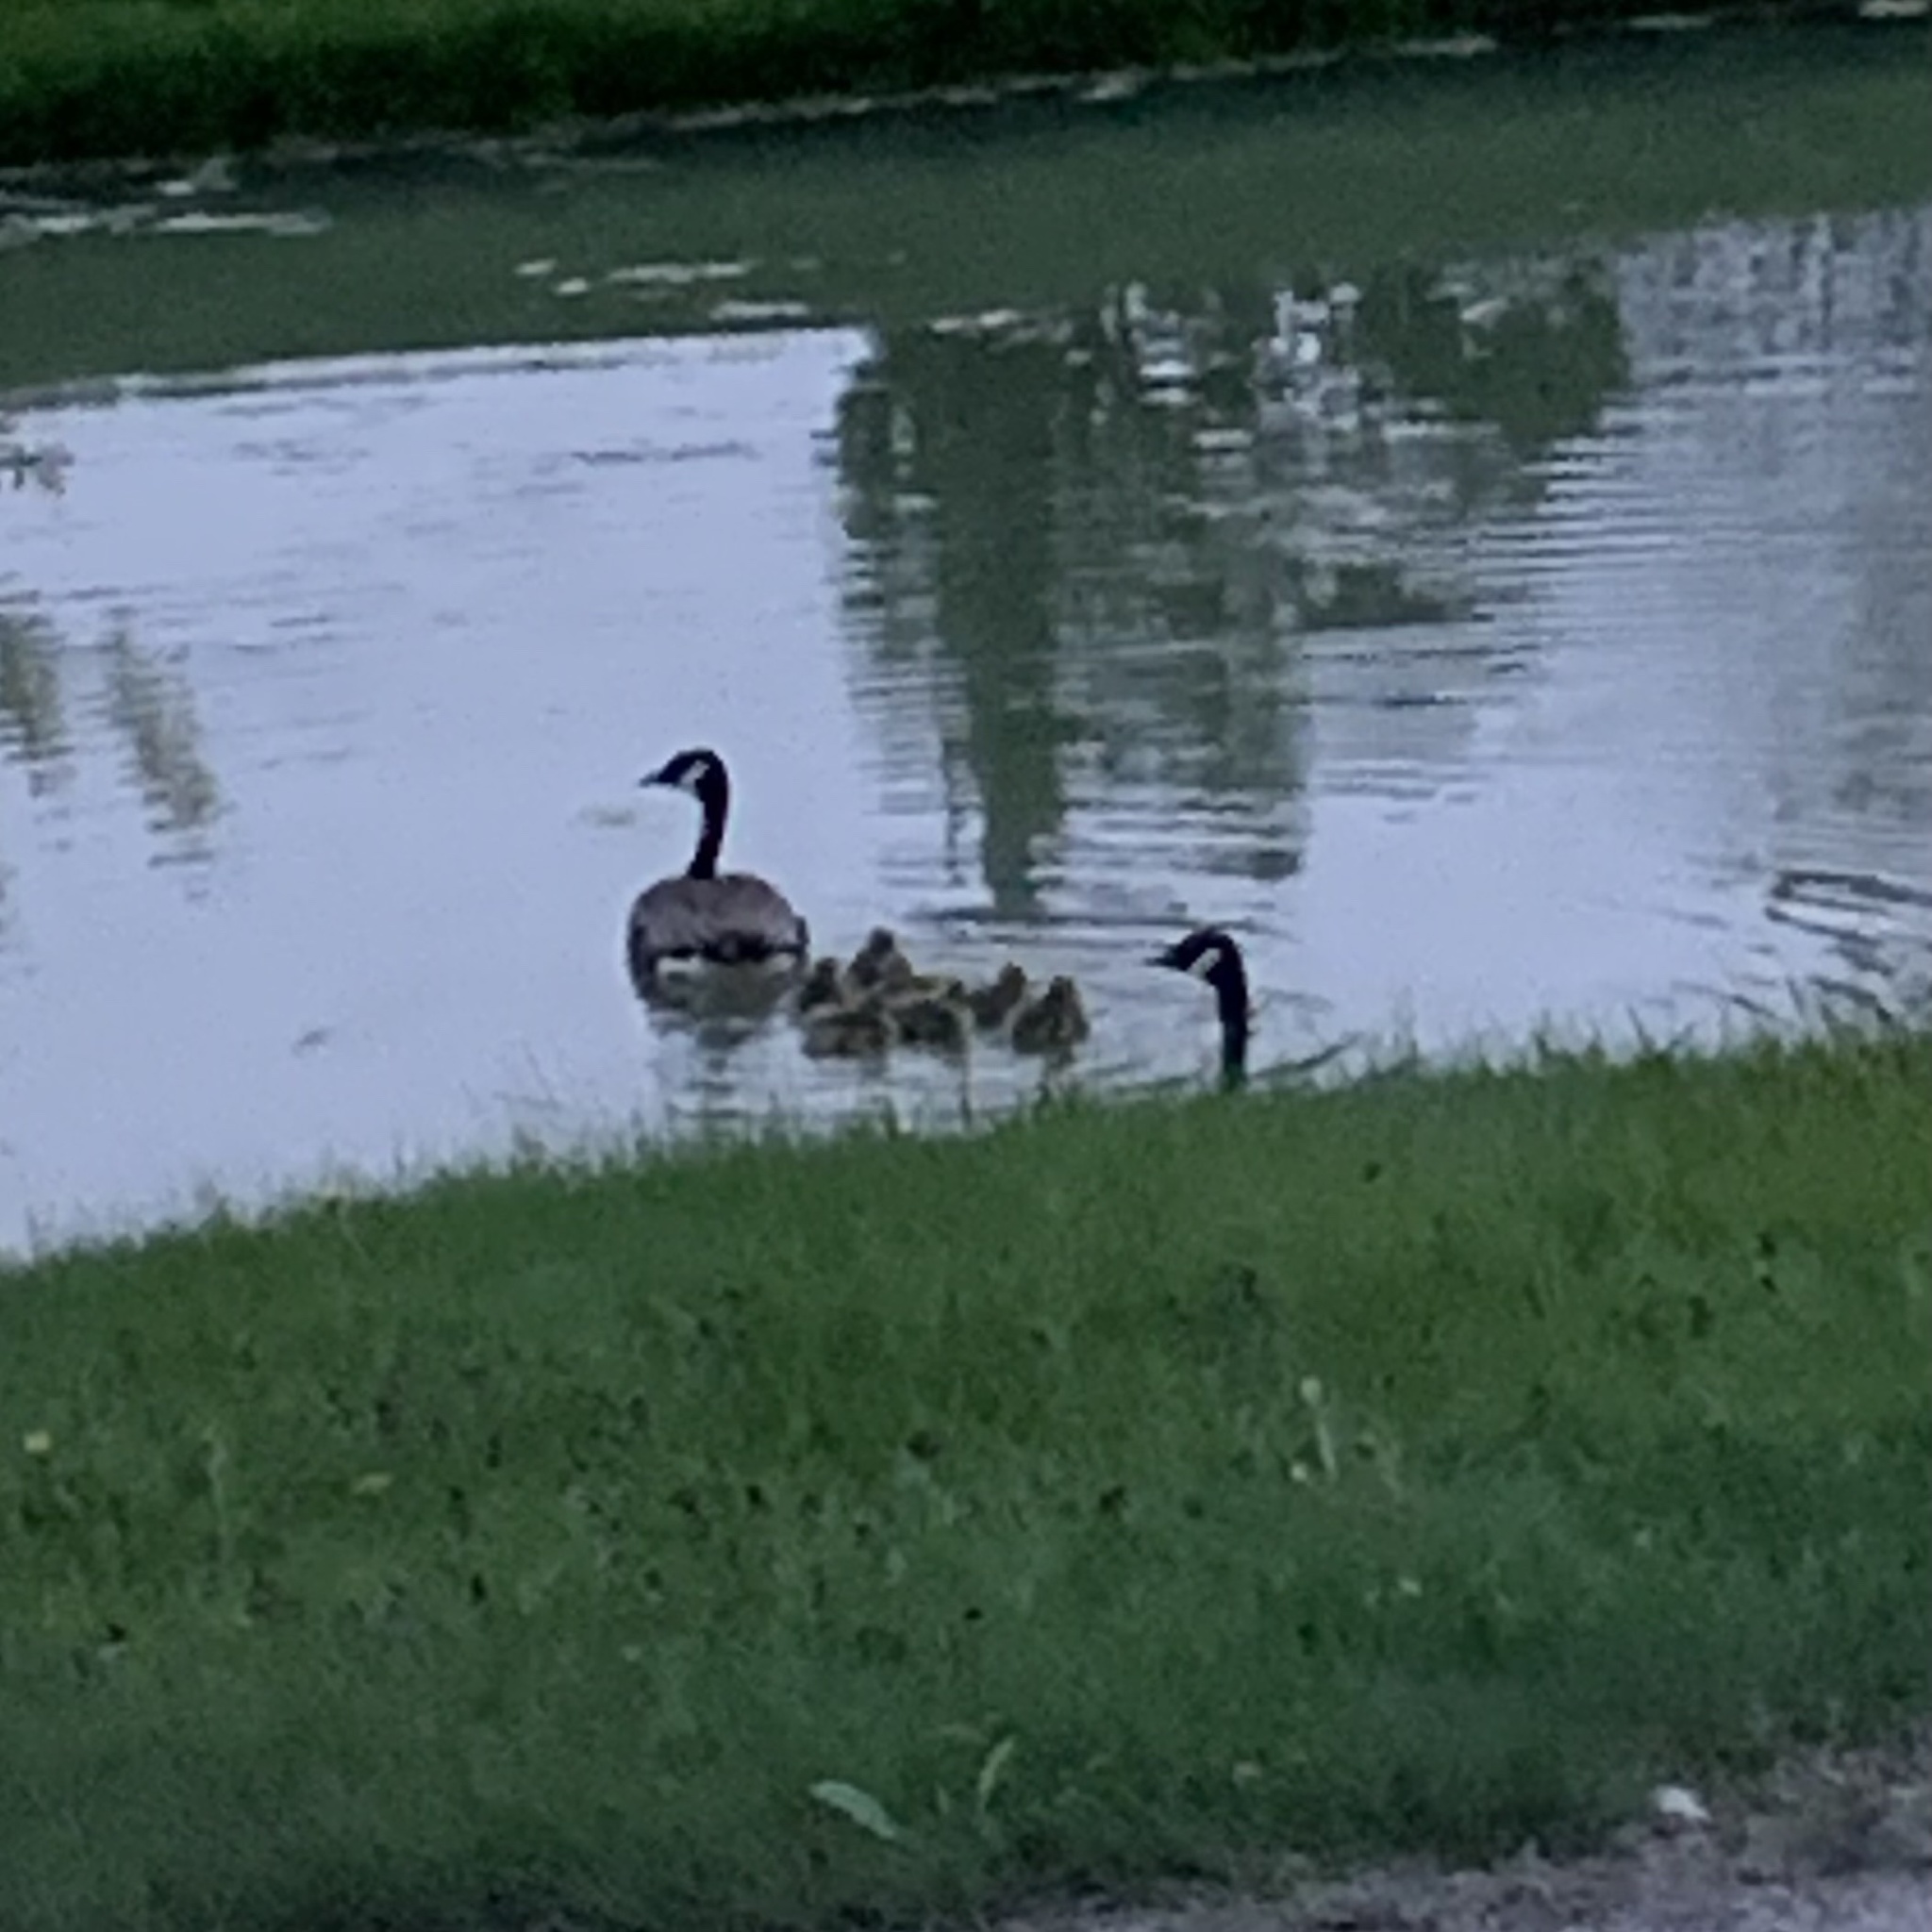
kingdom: Animalia
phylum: Chordata
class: Aves
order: Anseriformes
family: Anatidae
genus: Branta
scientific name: Branta canadensis
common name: Canada goose
